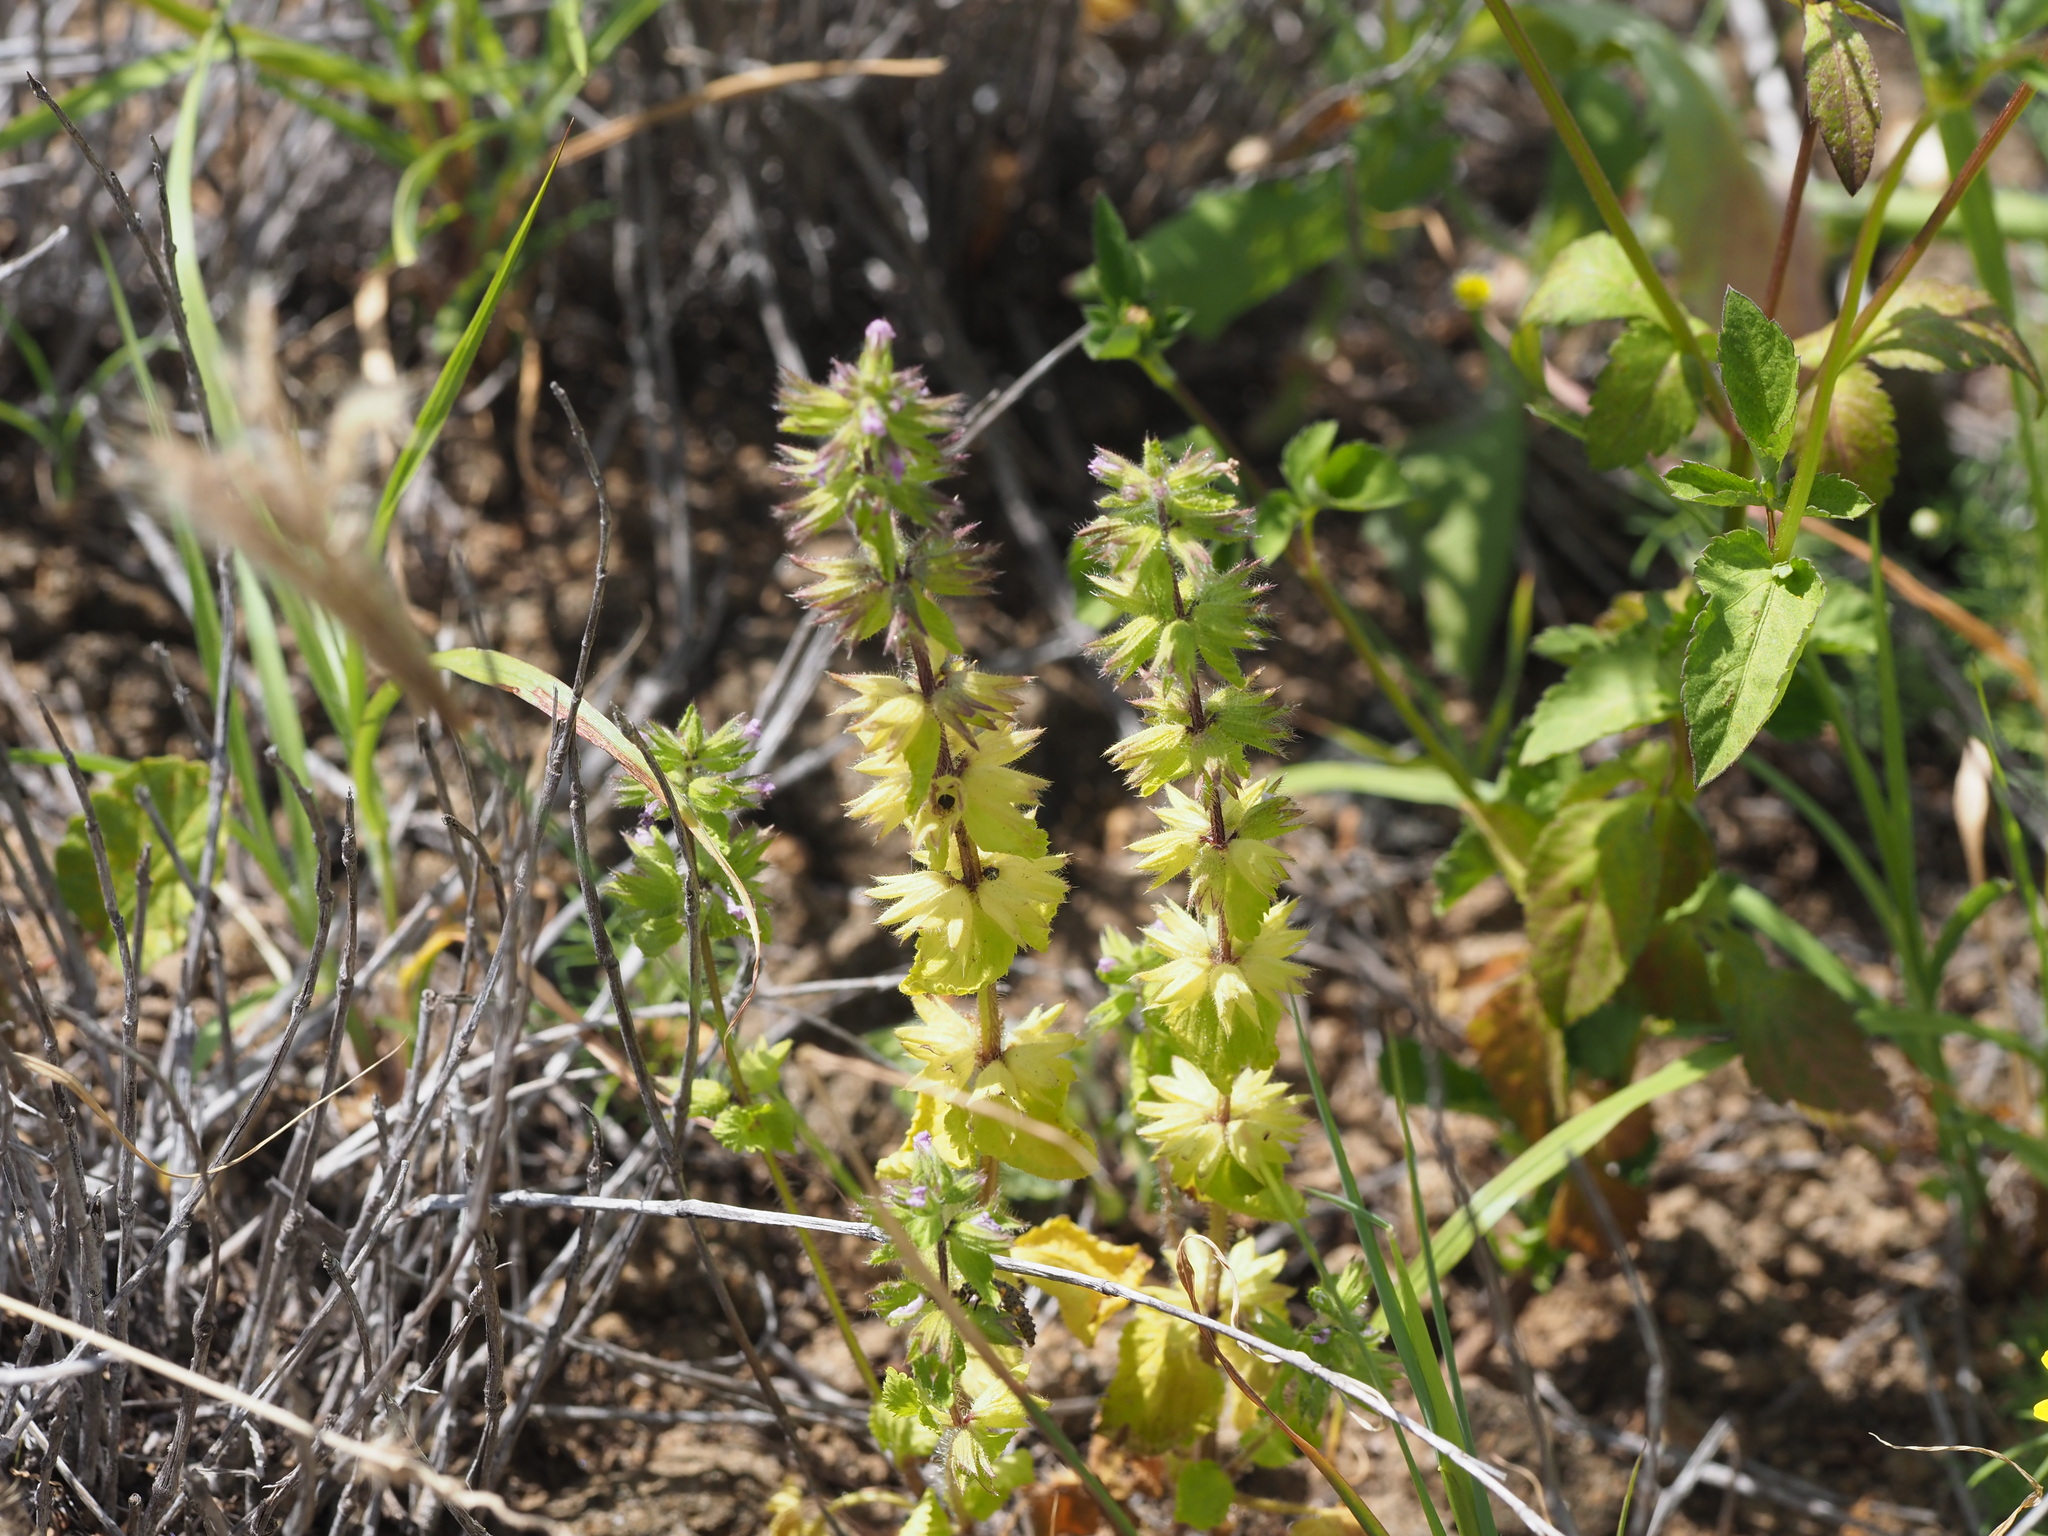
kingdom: Plantae
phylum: Tracheophyta
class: Magnoliopsida
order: Lamiales
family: Lamiaceae
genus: Stachys
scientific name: Stachys arvensis
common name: Field woundwort
